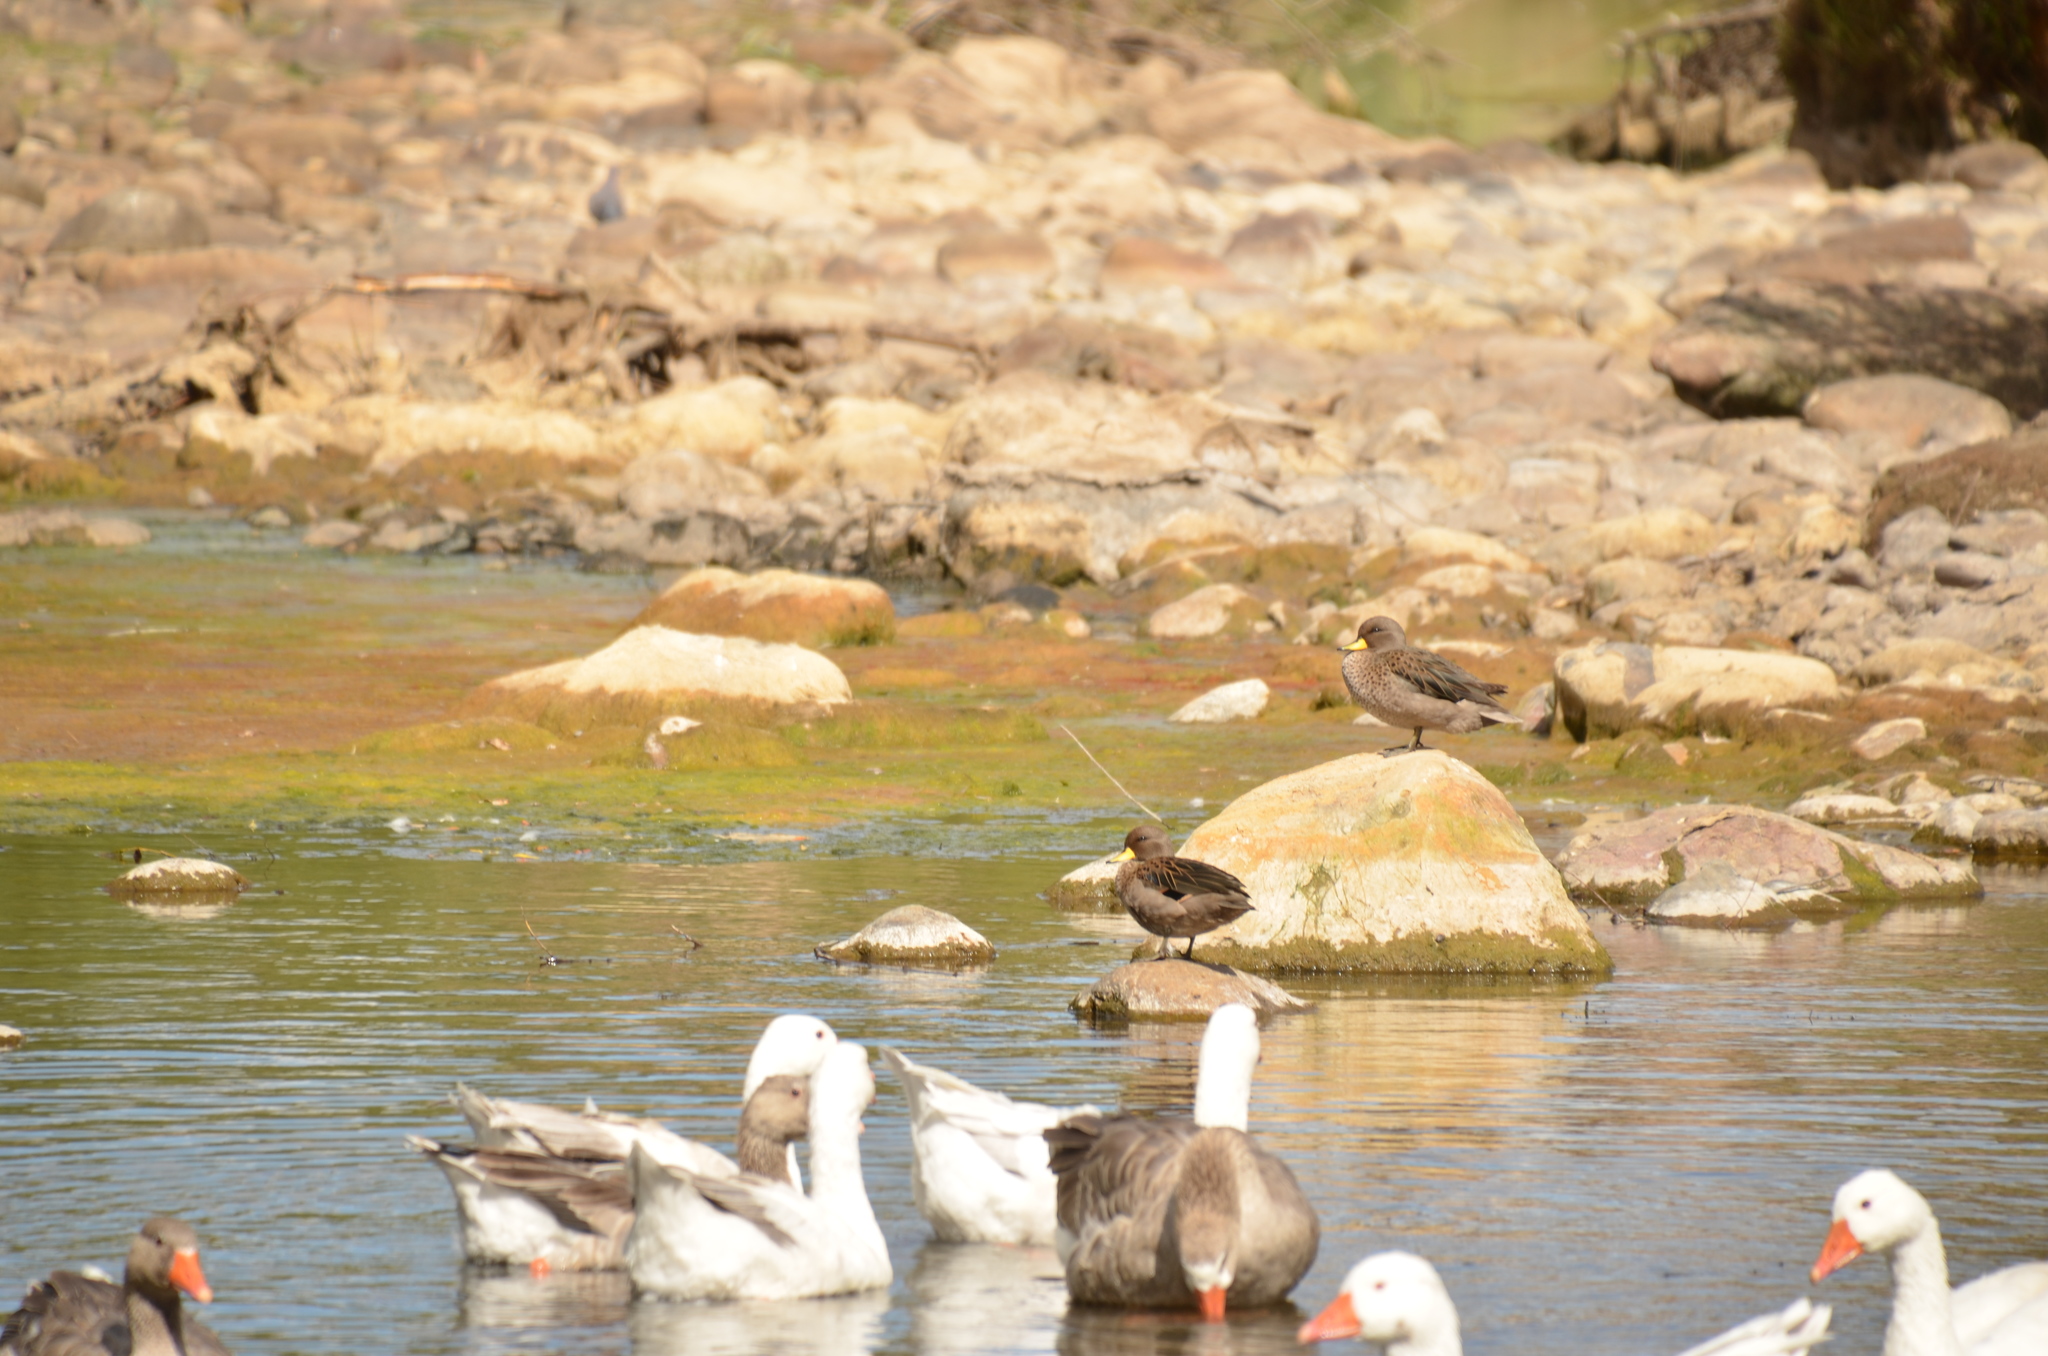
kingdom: Animalia
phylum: Chordata
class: Aves
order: Anseriformes
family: Anatidae
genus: Anas
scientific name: Anas flavirostris
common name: Yellow-billed teal
